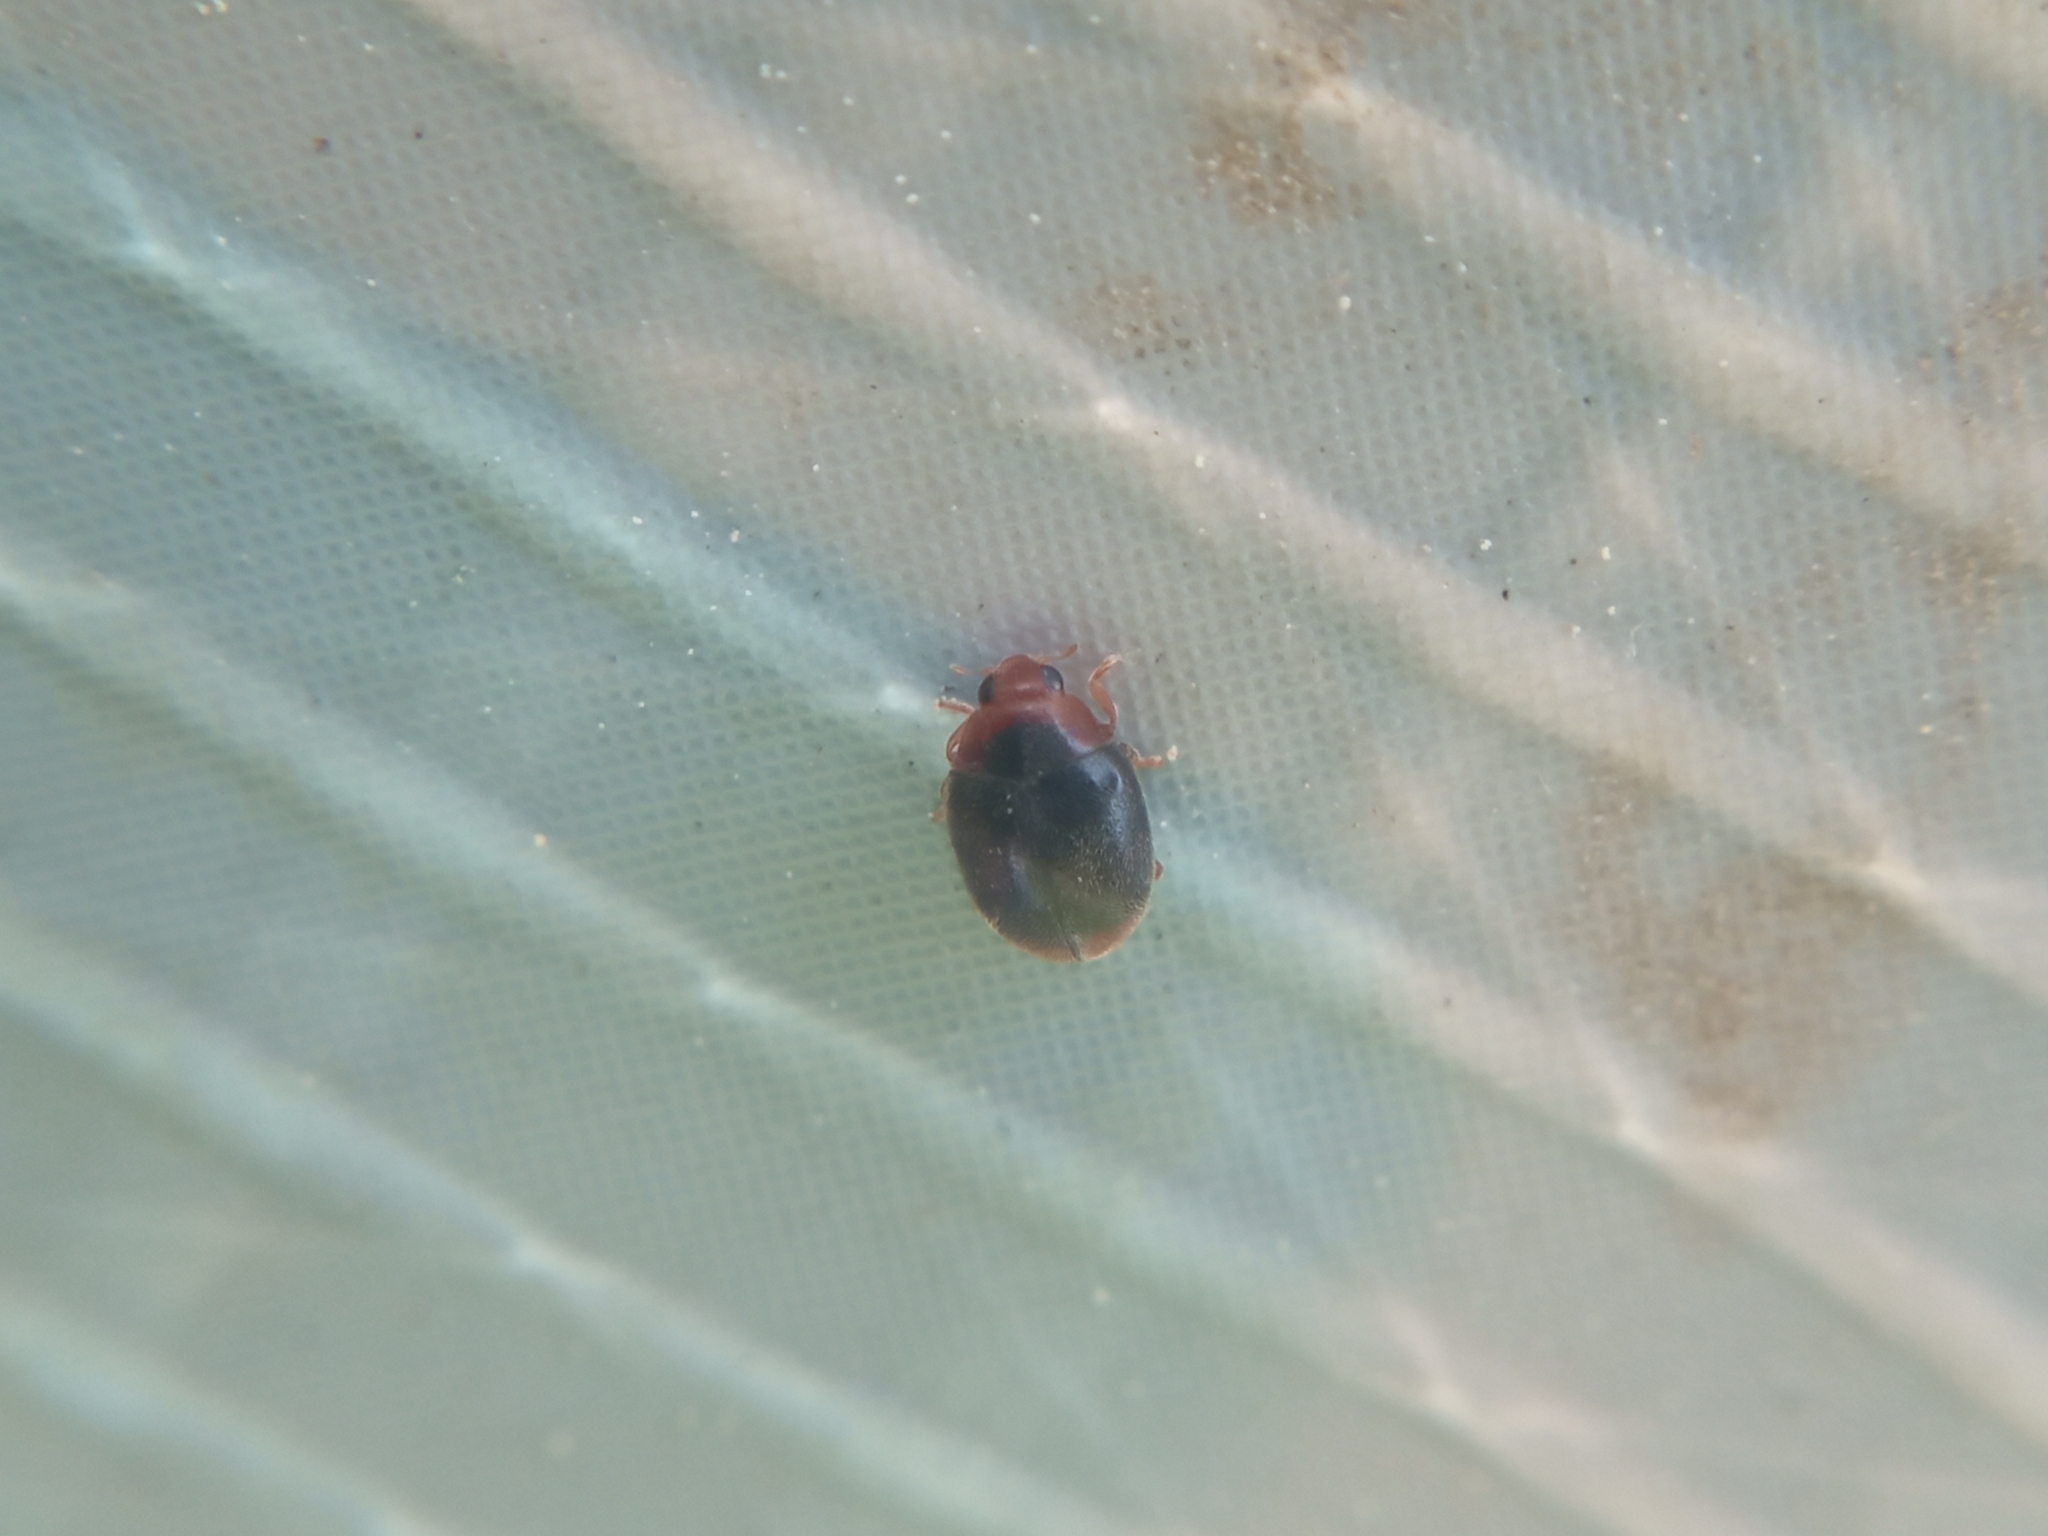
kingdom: Animalia
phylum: Arthropoda
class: Insecta
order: Coleoptera
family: Coccinellidae
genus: Scymnus
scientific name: Scymnus haemorrhoidalis
